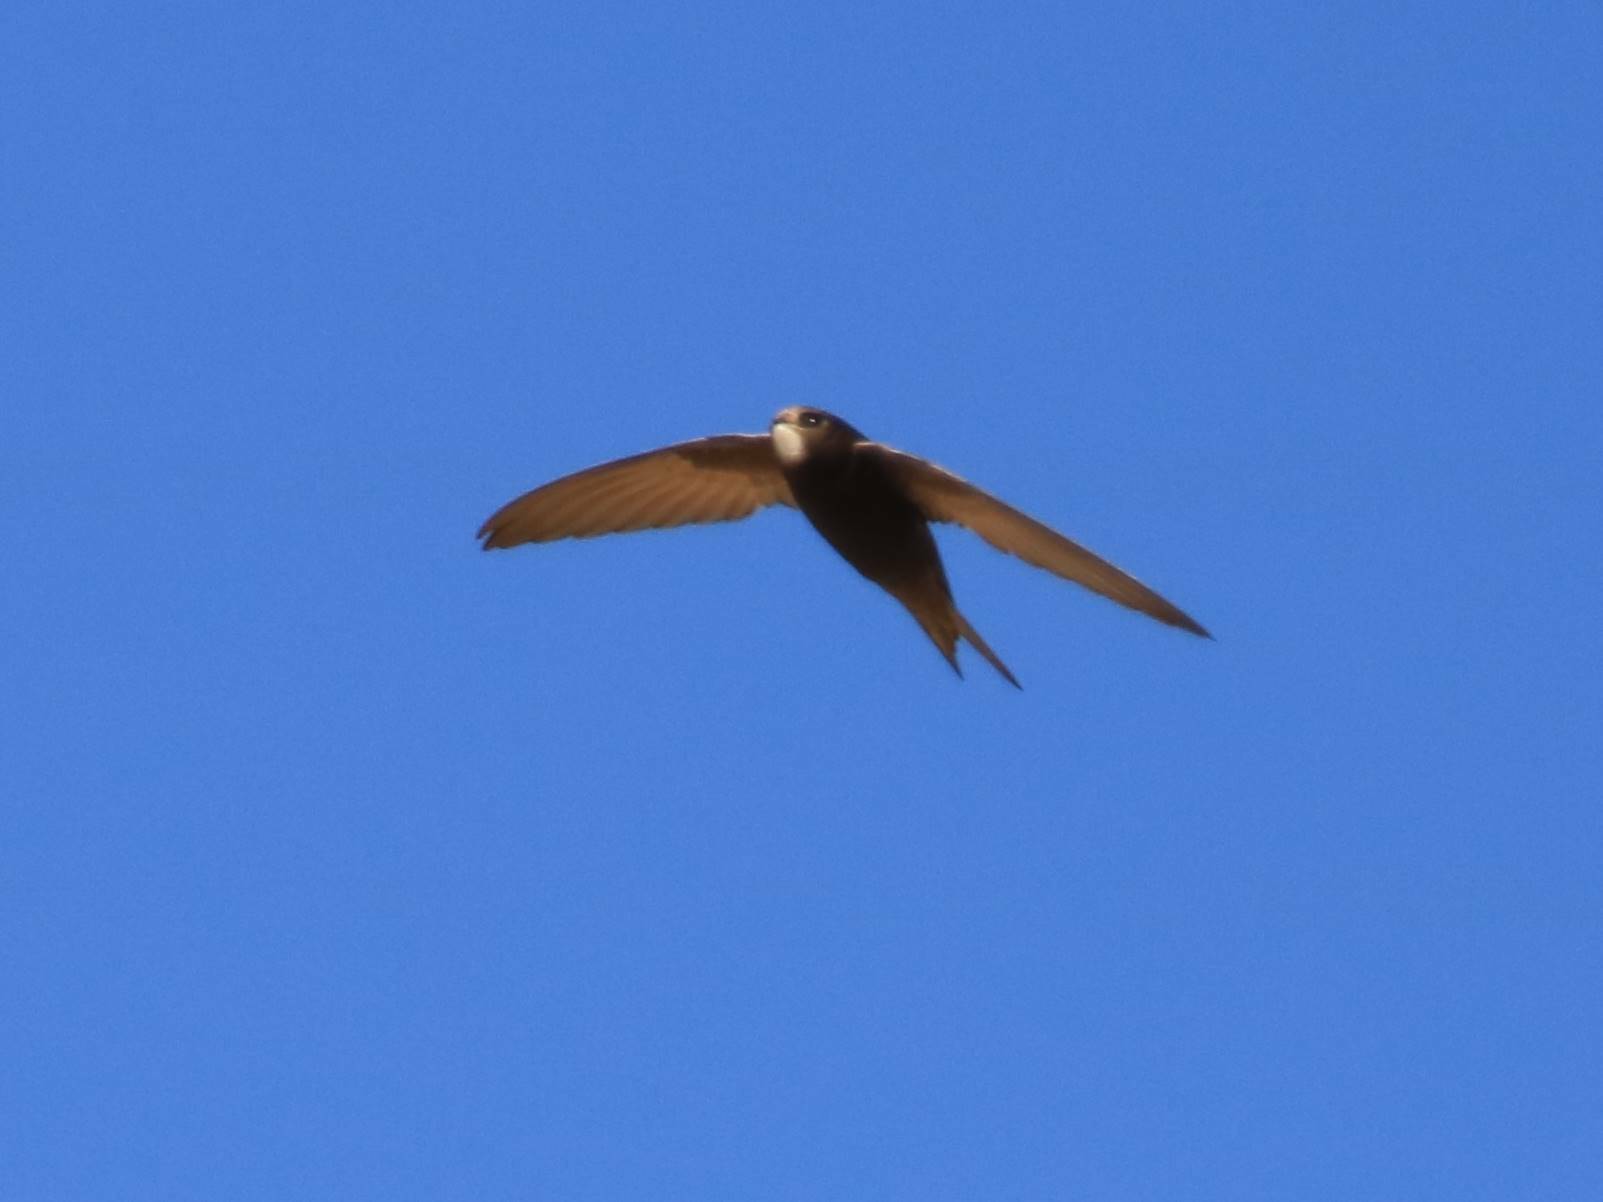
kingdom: Animalia
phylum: Chordata
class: Aves
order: Apodiformes
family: Apodidae
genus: Apus
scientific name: Apus apus
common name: Common swift
